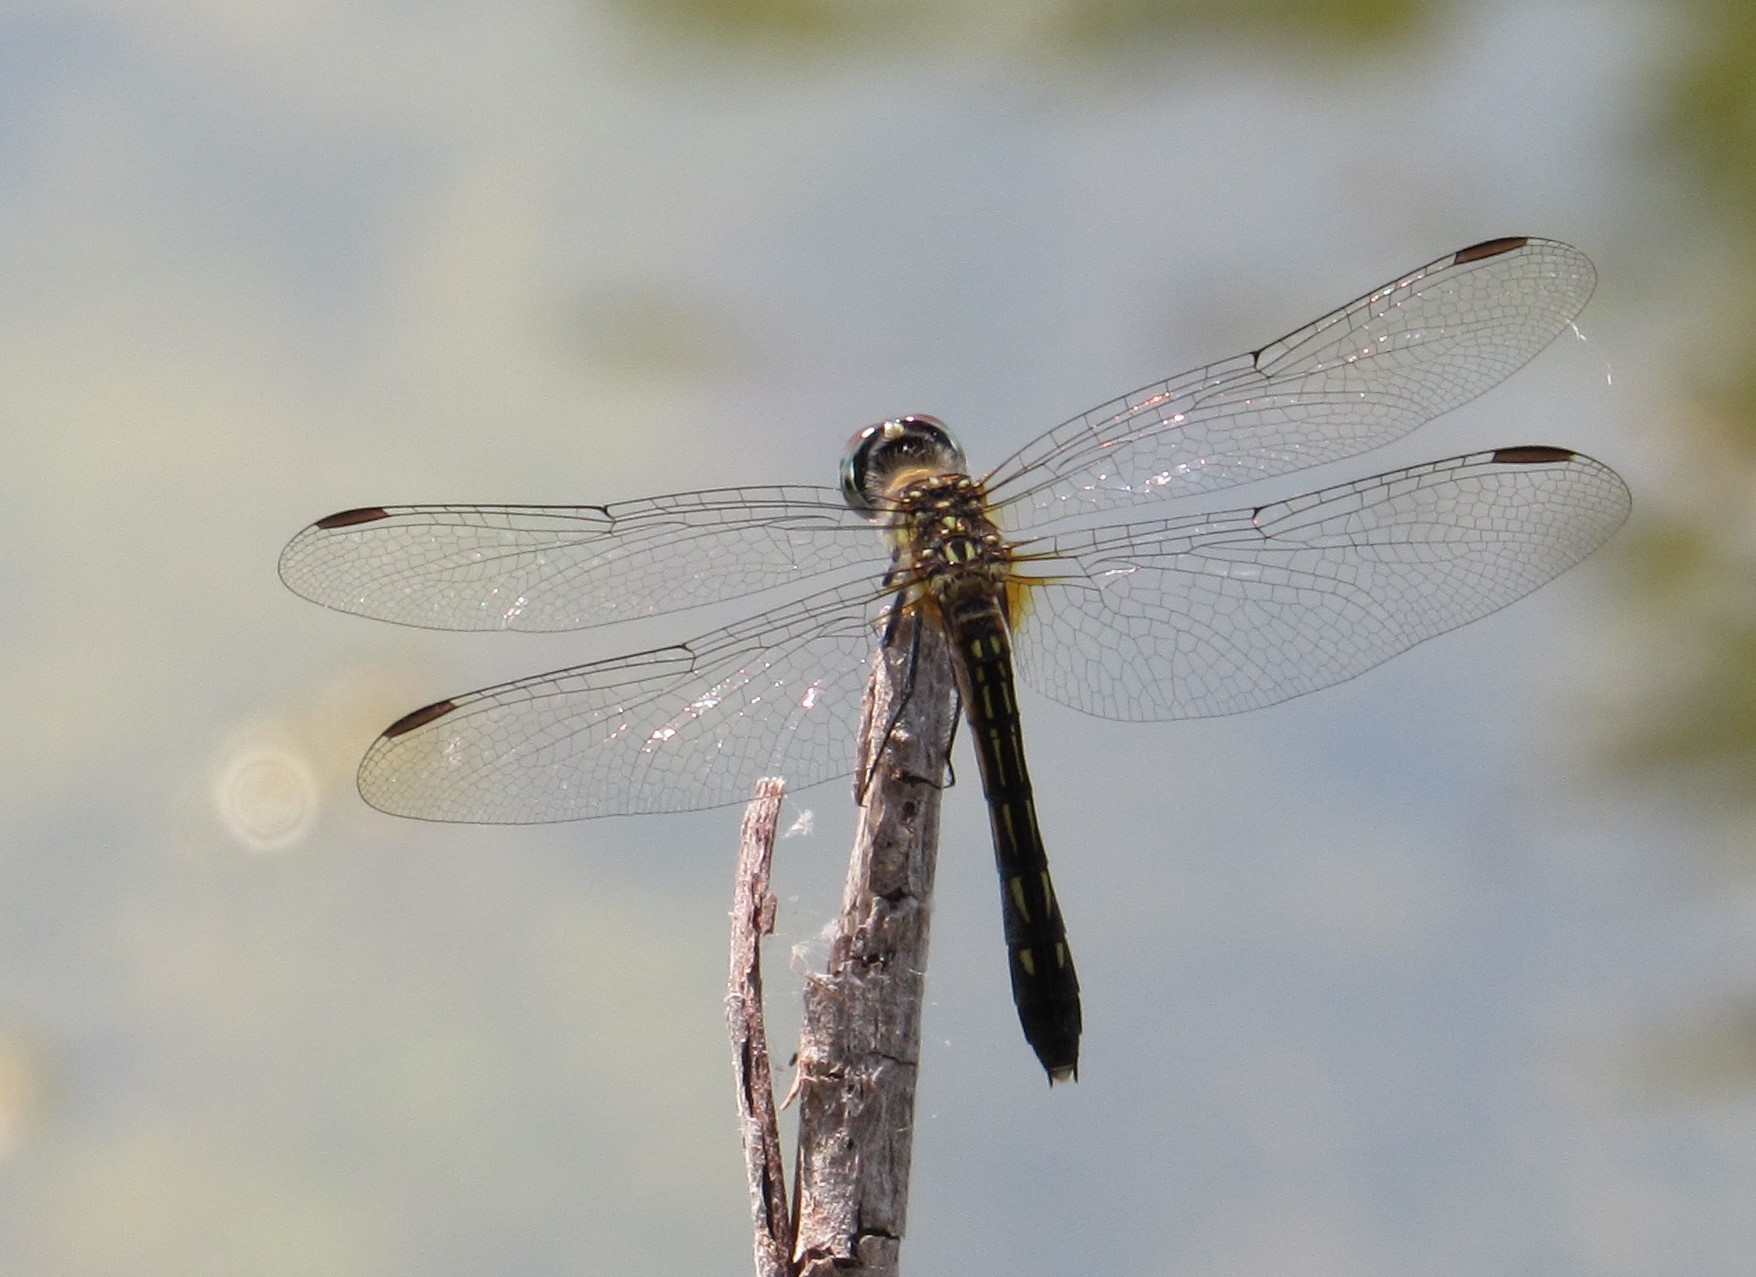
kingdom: Animalia
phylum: Arthropoda
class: Insecta
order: Odonata
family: Libellulidae
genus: Pachydiplax
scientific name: Pachydiplax longipennis
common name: Blue dasher
